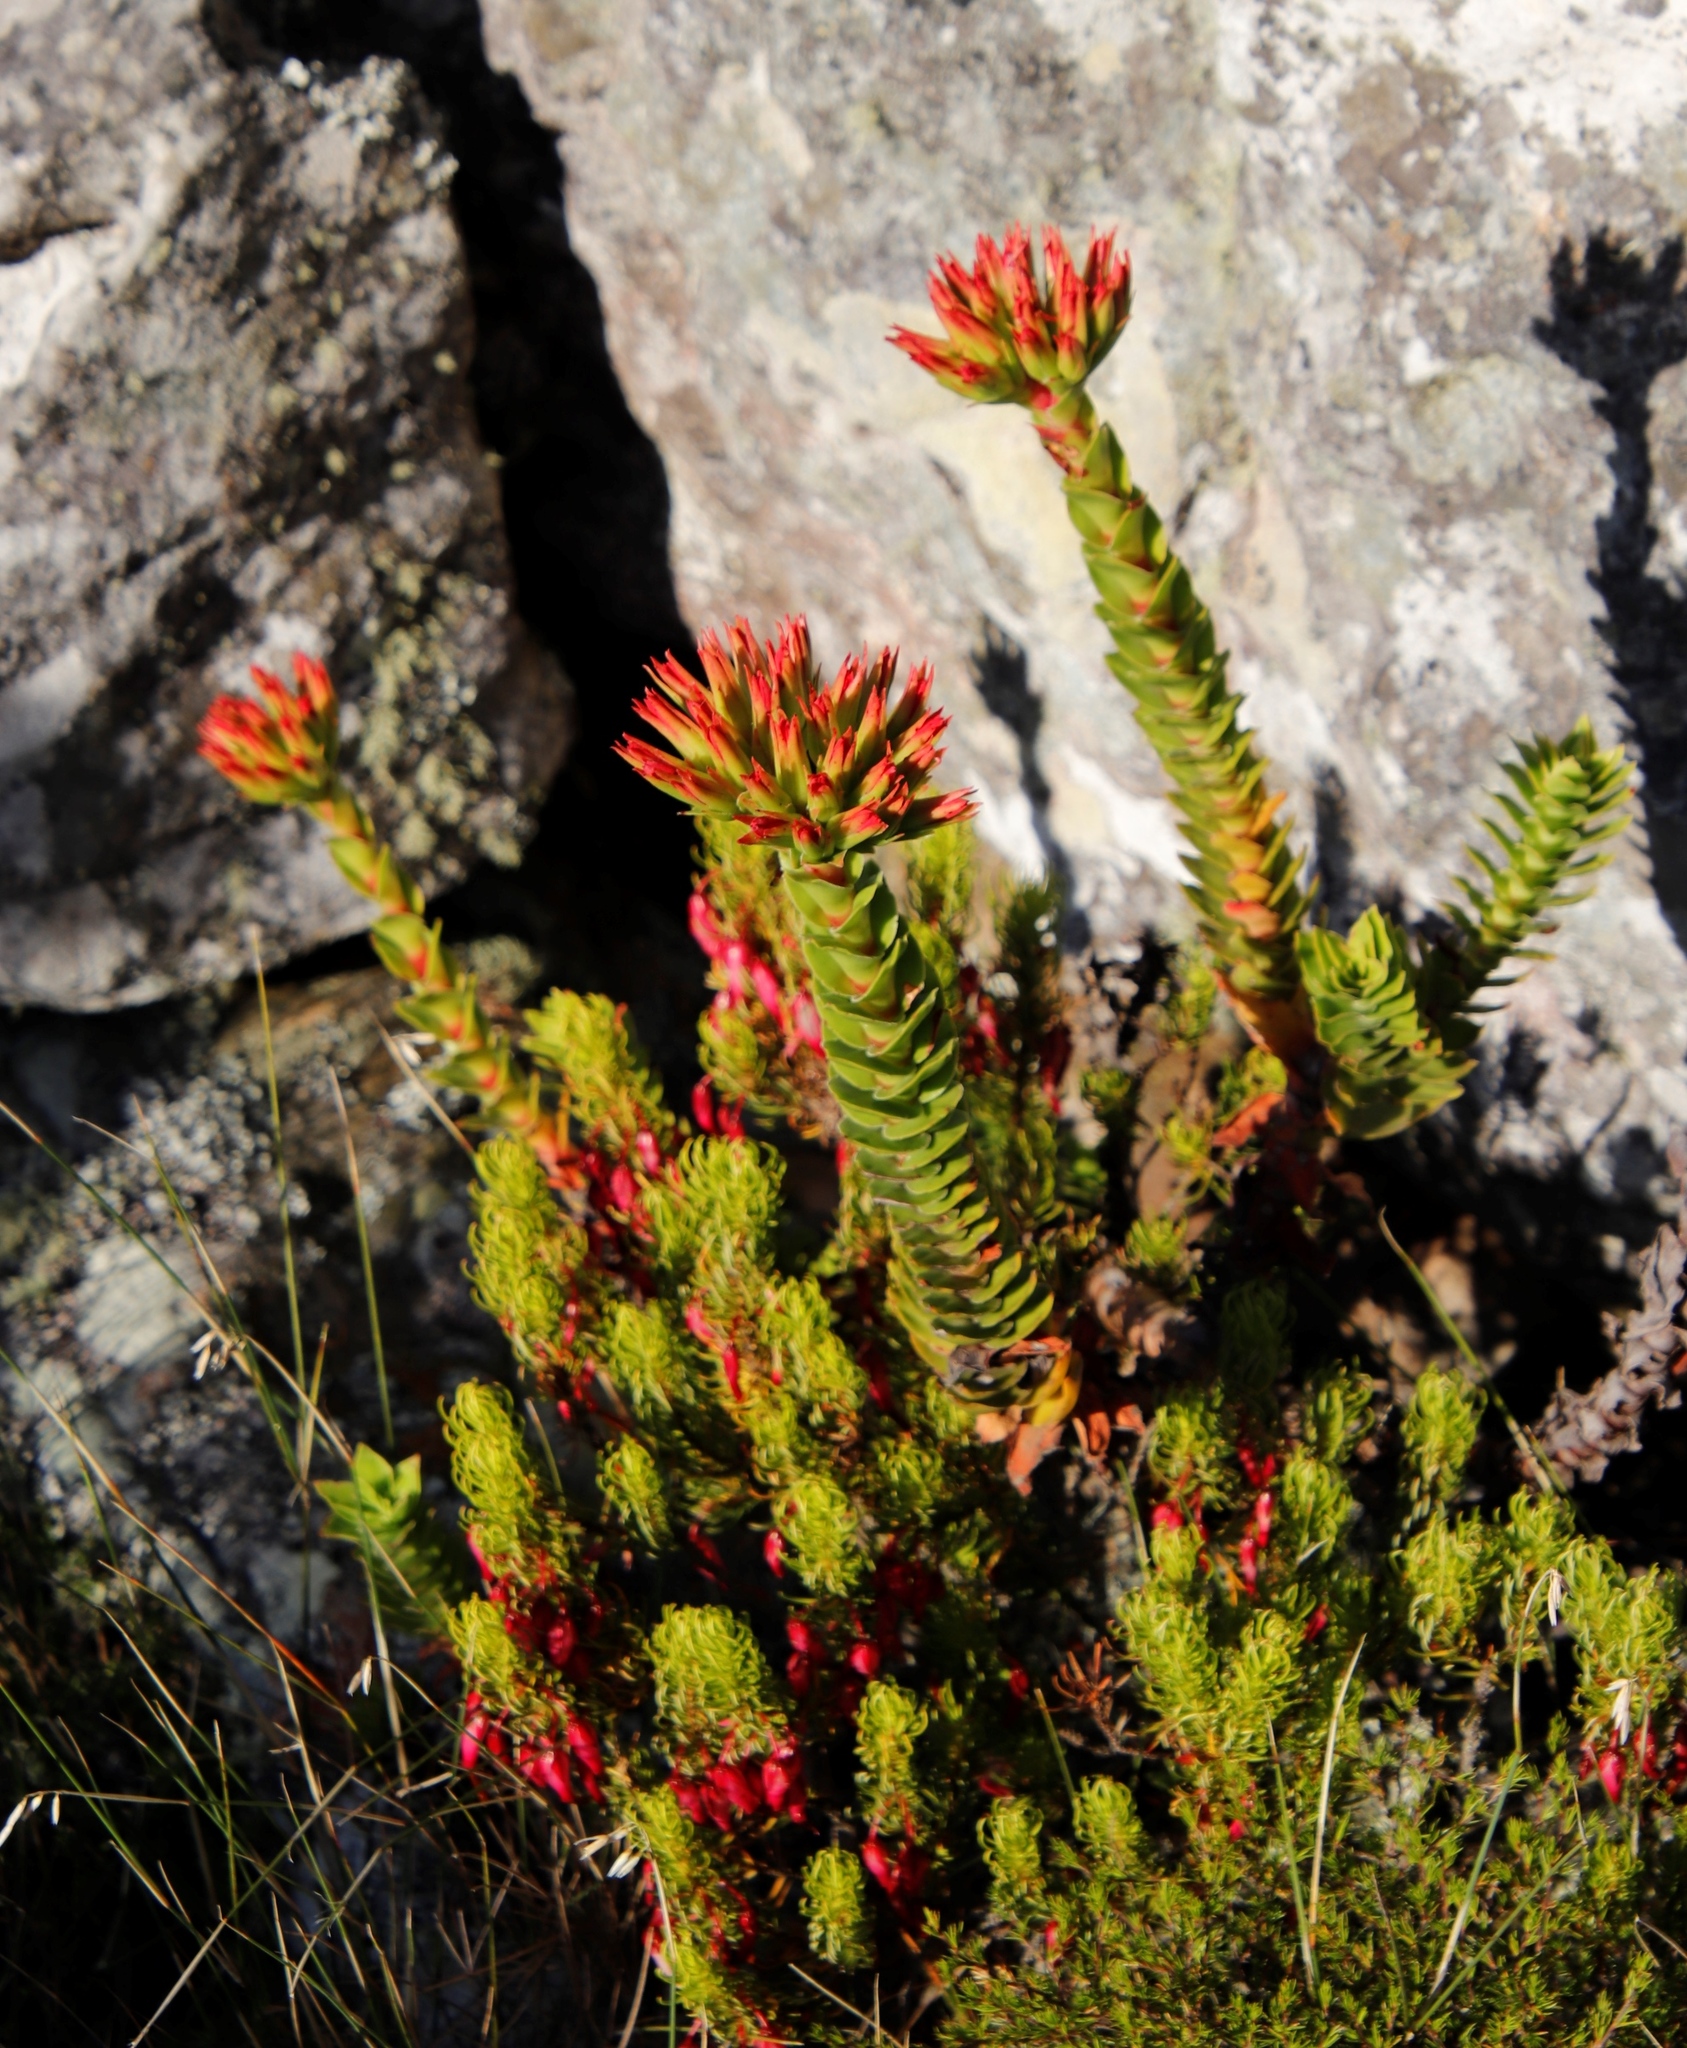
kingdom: Plantae
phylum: Tracheophyta
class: Magnoliopsida
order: Saxifragales
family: Crassulaceae
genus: Crassula
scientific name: Crassula coccinea
